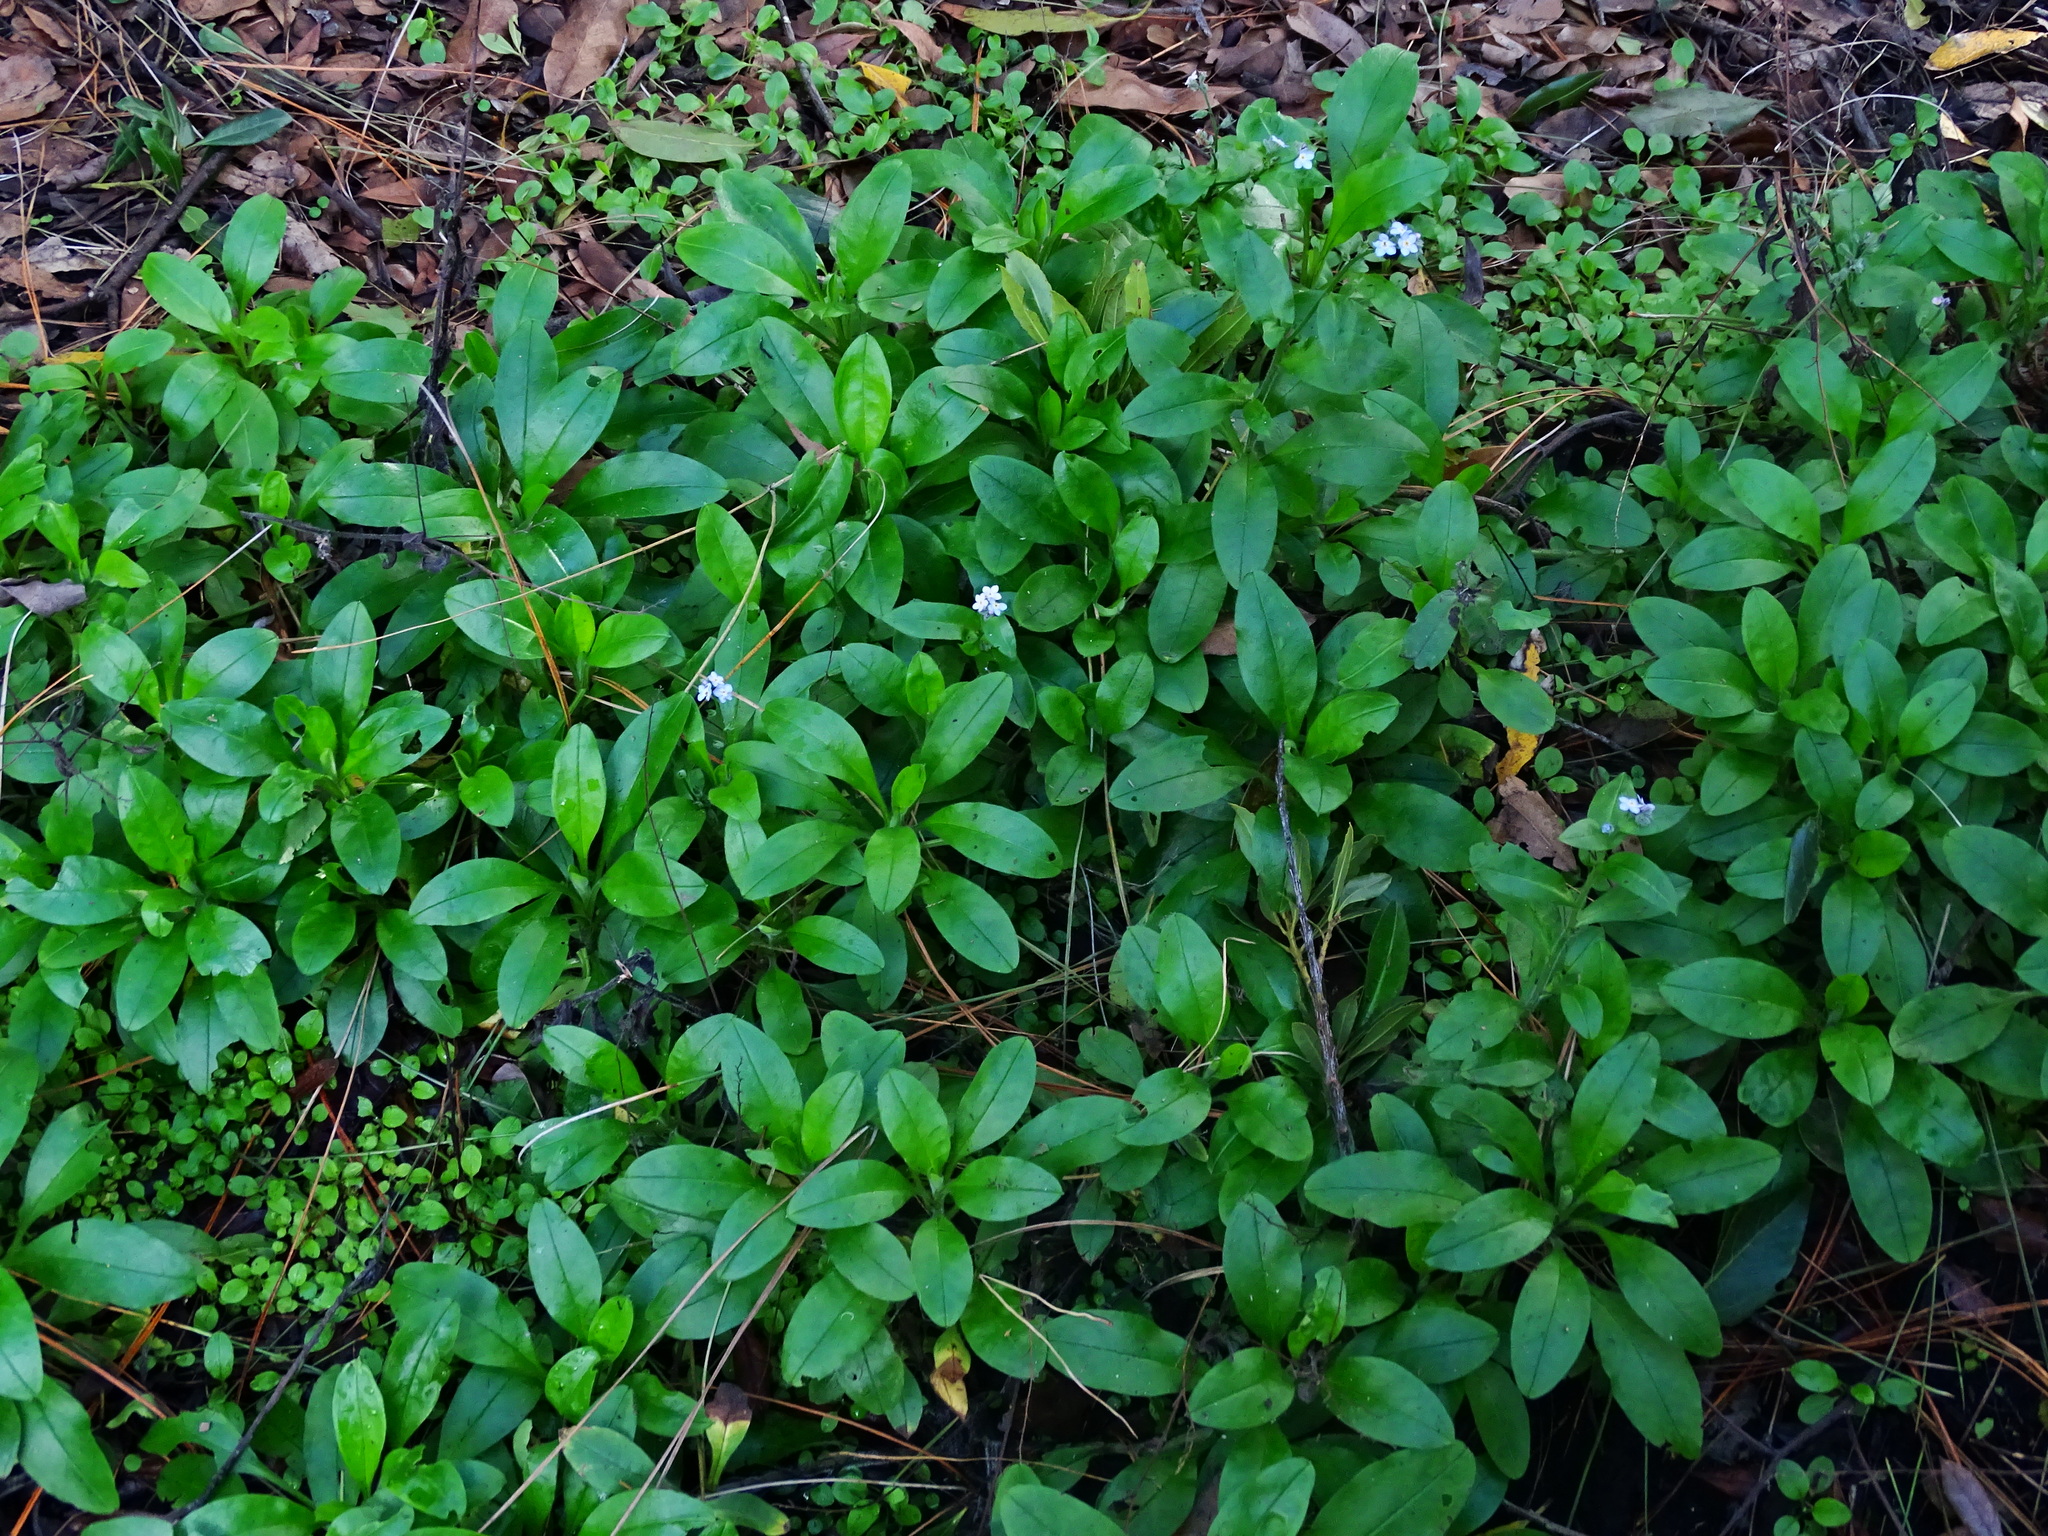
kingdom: Plantae
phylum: Tracheophyta
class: Magnoliopsida
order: Boraginales
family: Boraginaceae
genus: Myosotis
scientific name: Myosotis latifolia
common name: Broadleaf forget-me-not
